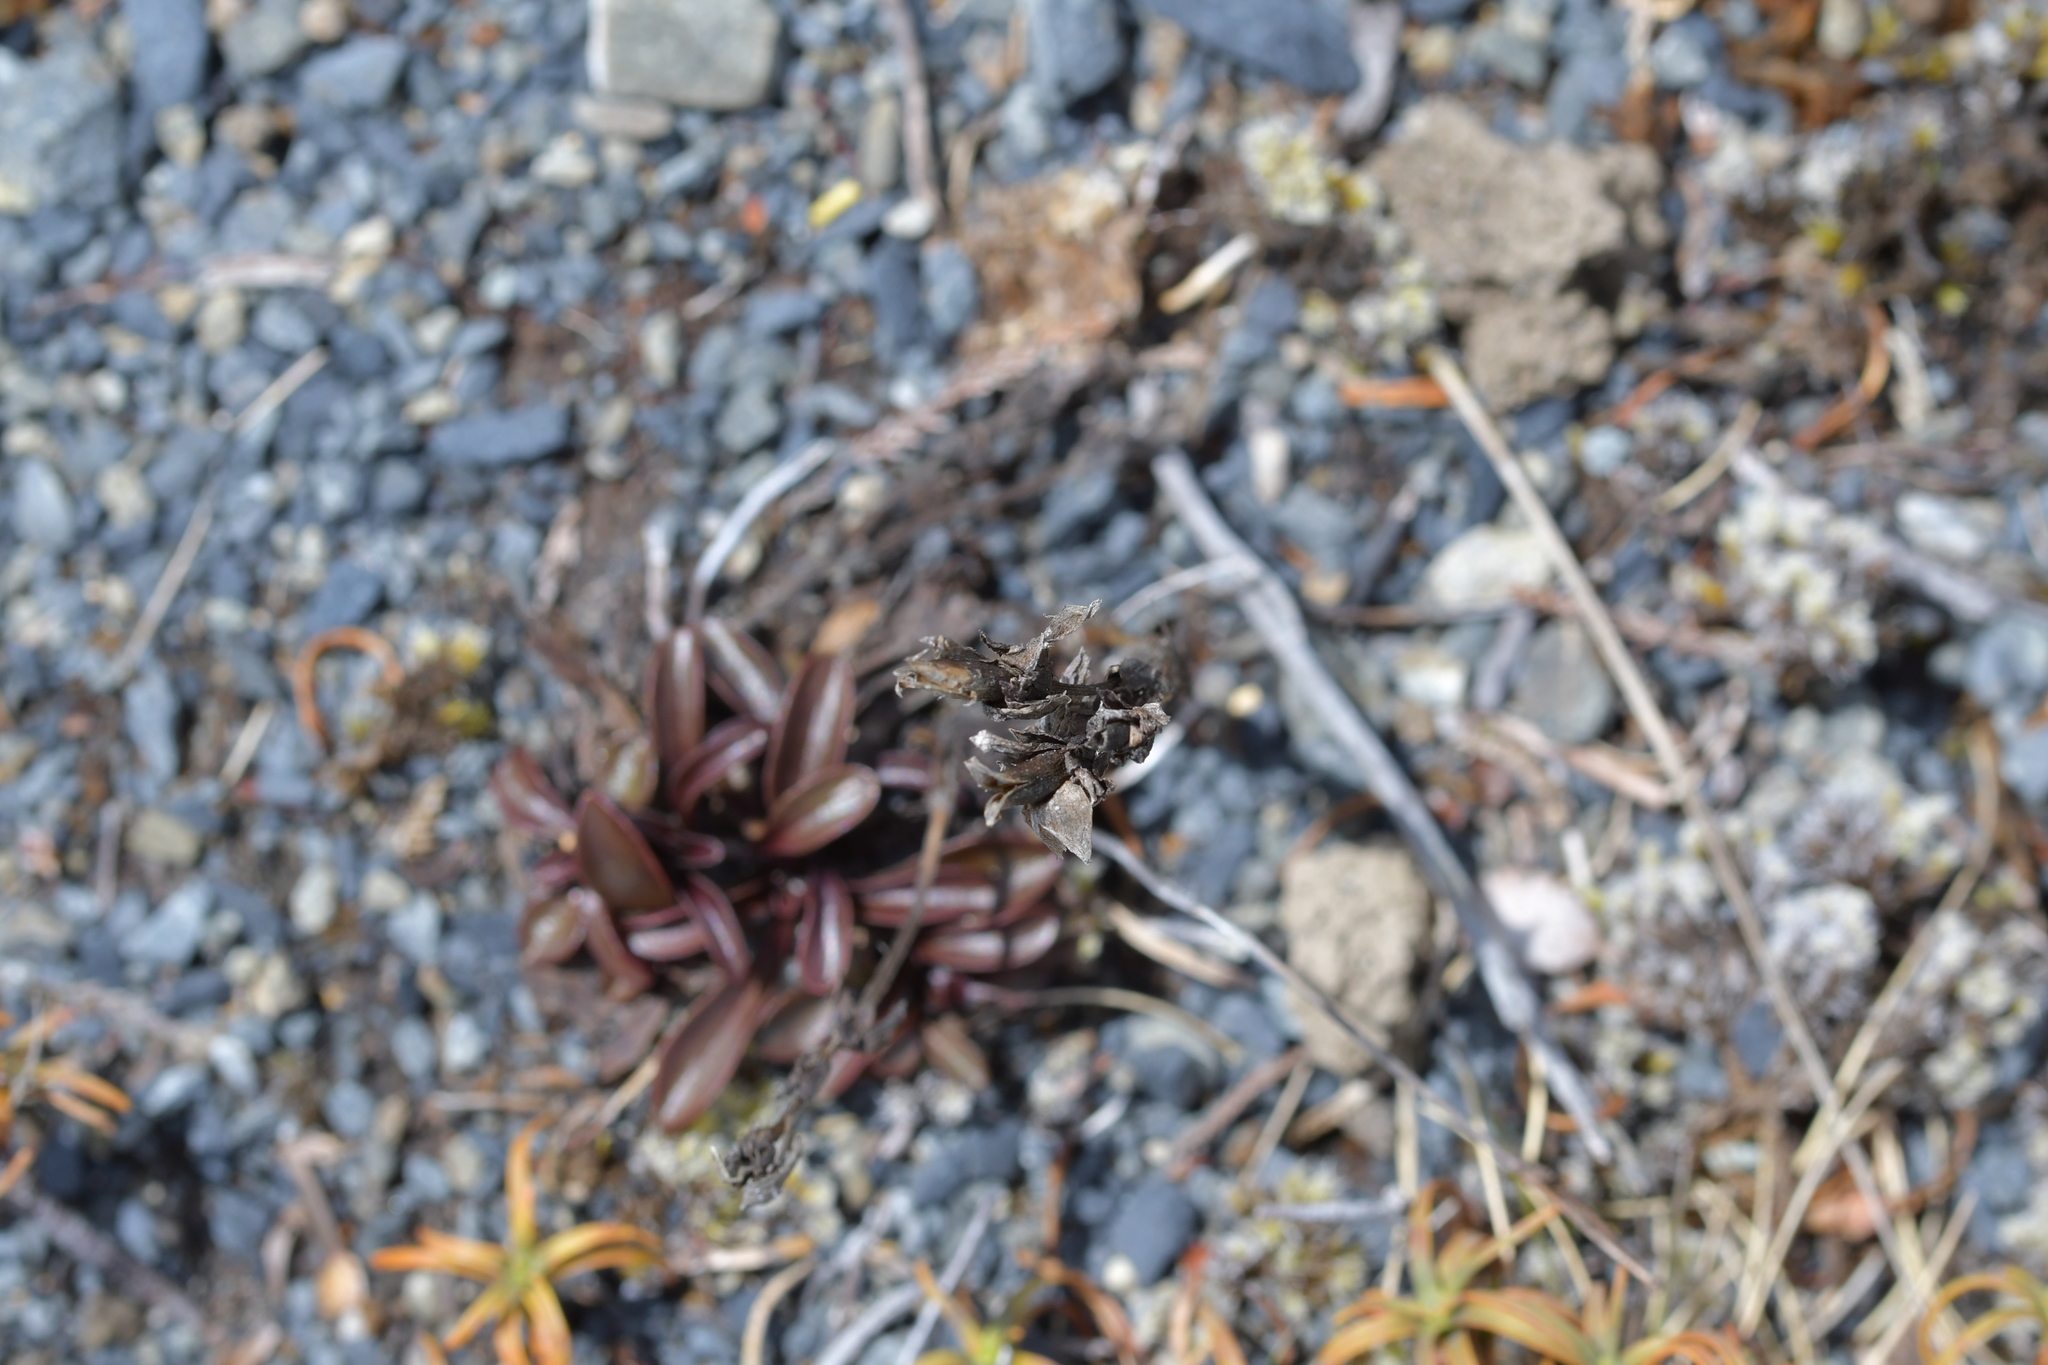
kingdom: Plantae
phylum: Tracheophyta
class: Magnoliopsida
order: Gentianales
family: Gentianaceae
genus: Gentianella
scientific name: Gentianella bellidifolia
